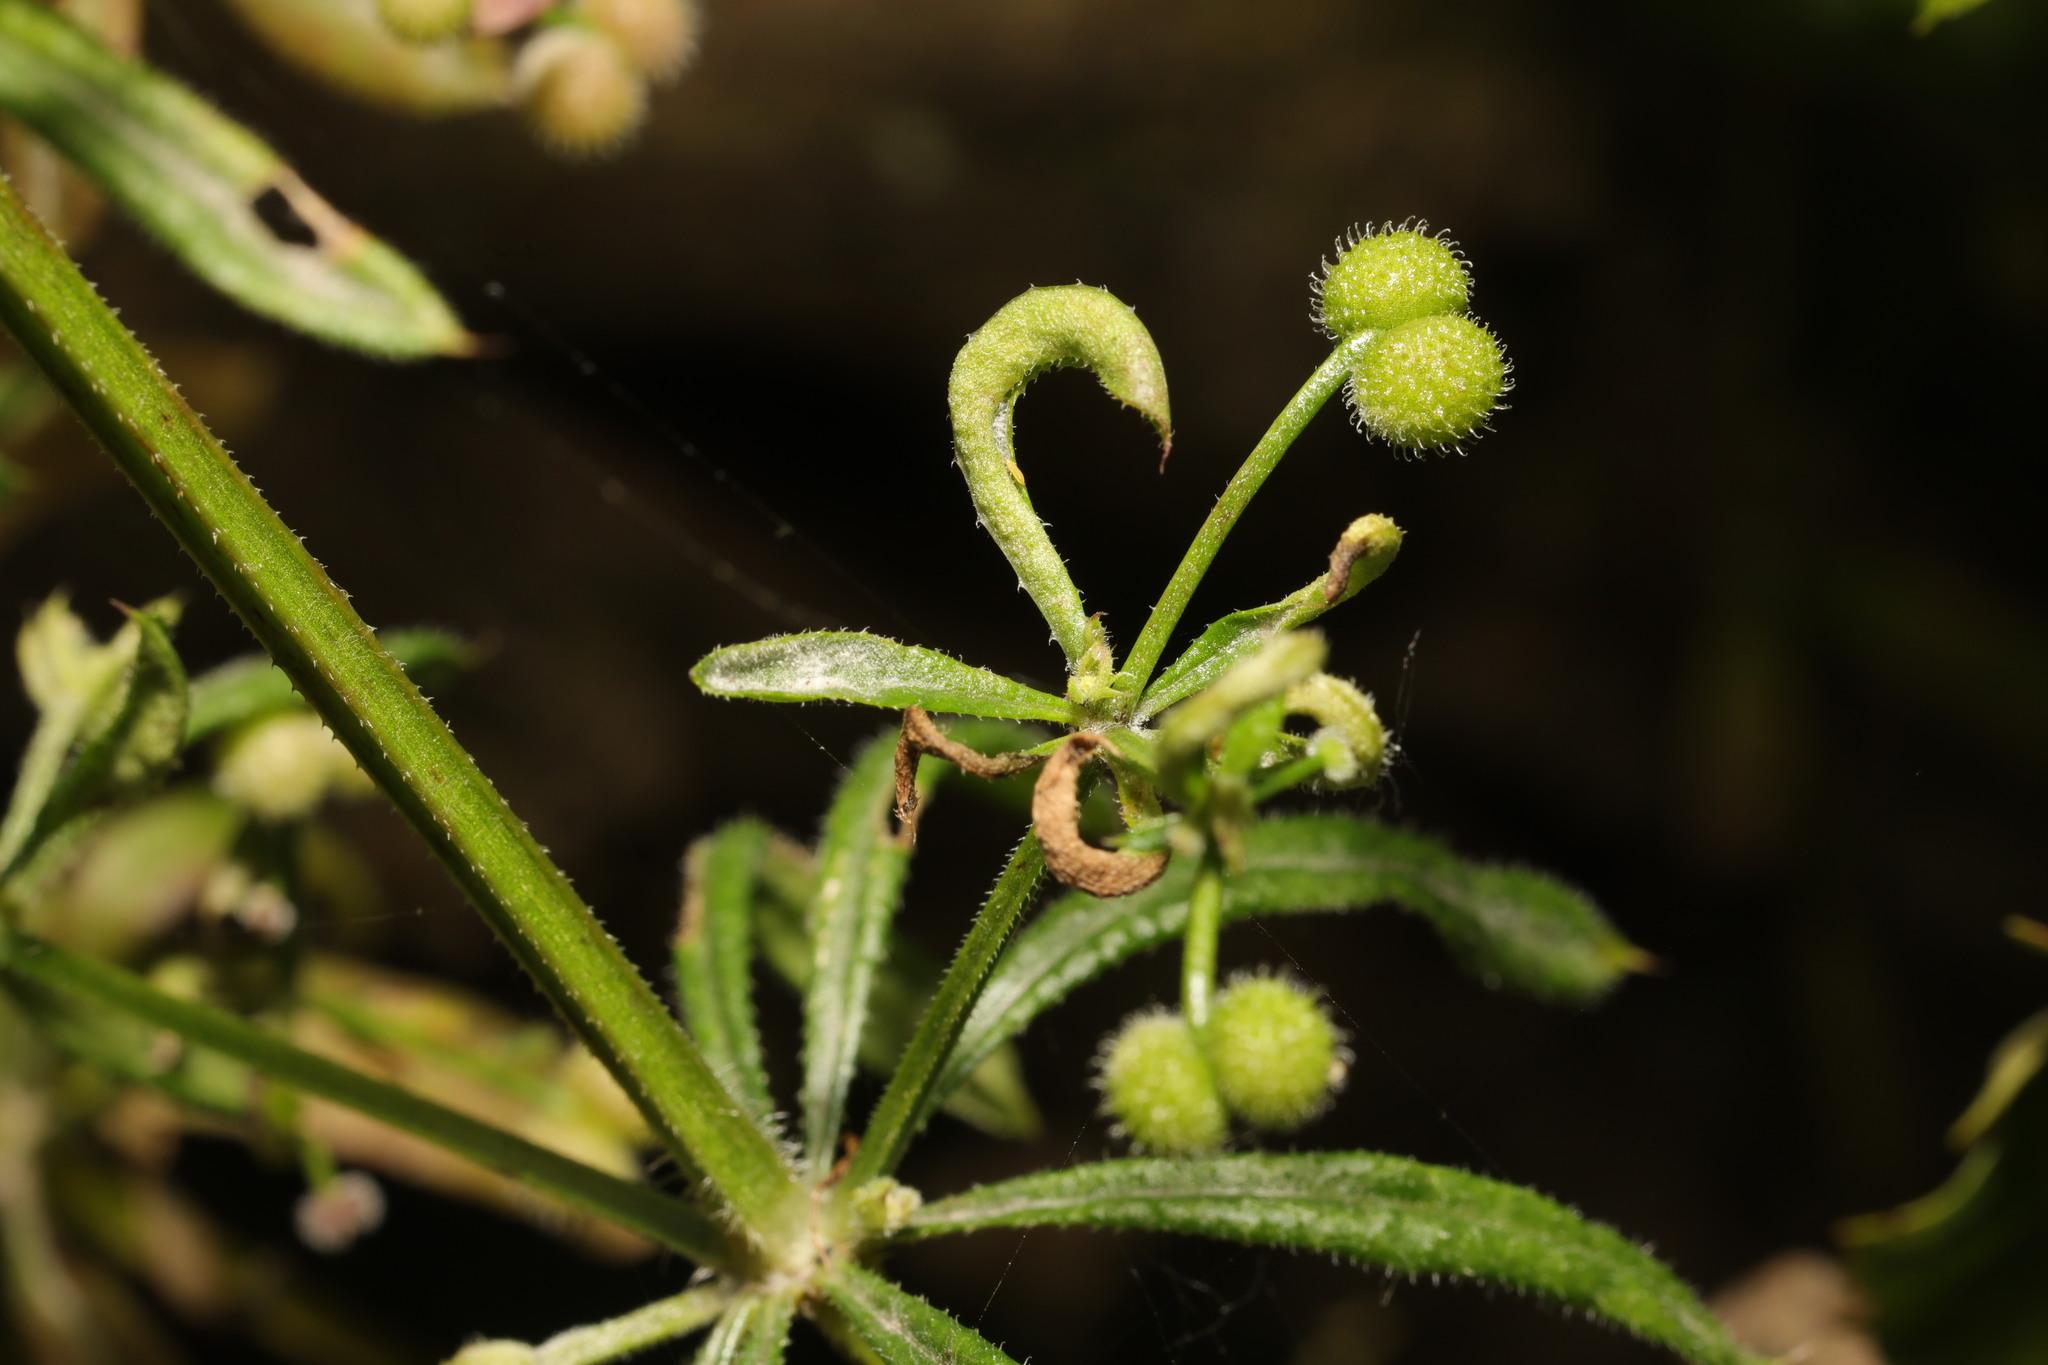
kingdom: Animalia
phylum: Arthropoda
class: Arachnida
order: Trombidiformes
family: Eriophyidae
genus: Cecidophyes
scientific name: Cecidophyes rouhollahi
